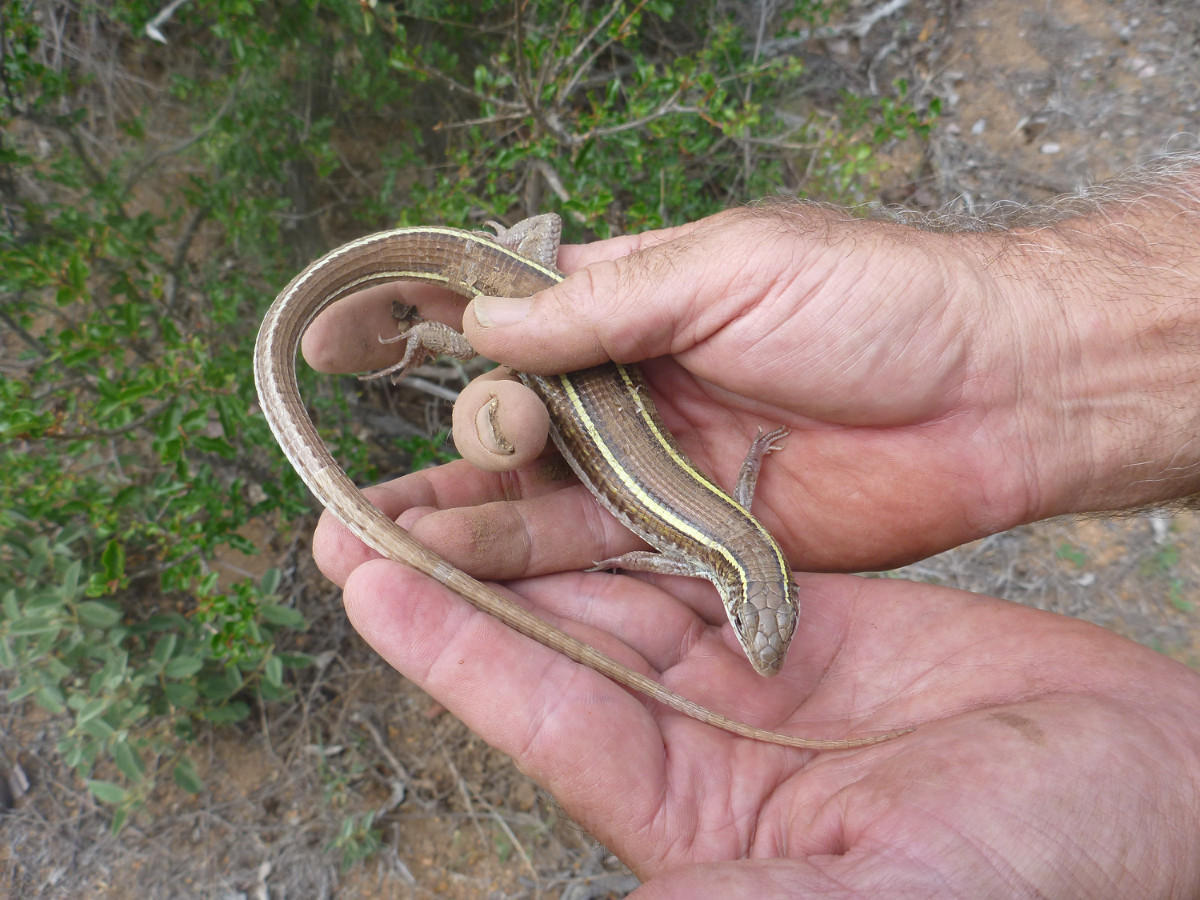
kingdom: Animalia
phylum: Chordata
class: Squamata
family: Gerrhosauridae
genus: Gerrhosaurus
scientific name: Gerrhosaurus nigrolineatus
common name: Black-lined plated lizard
